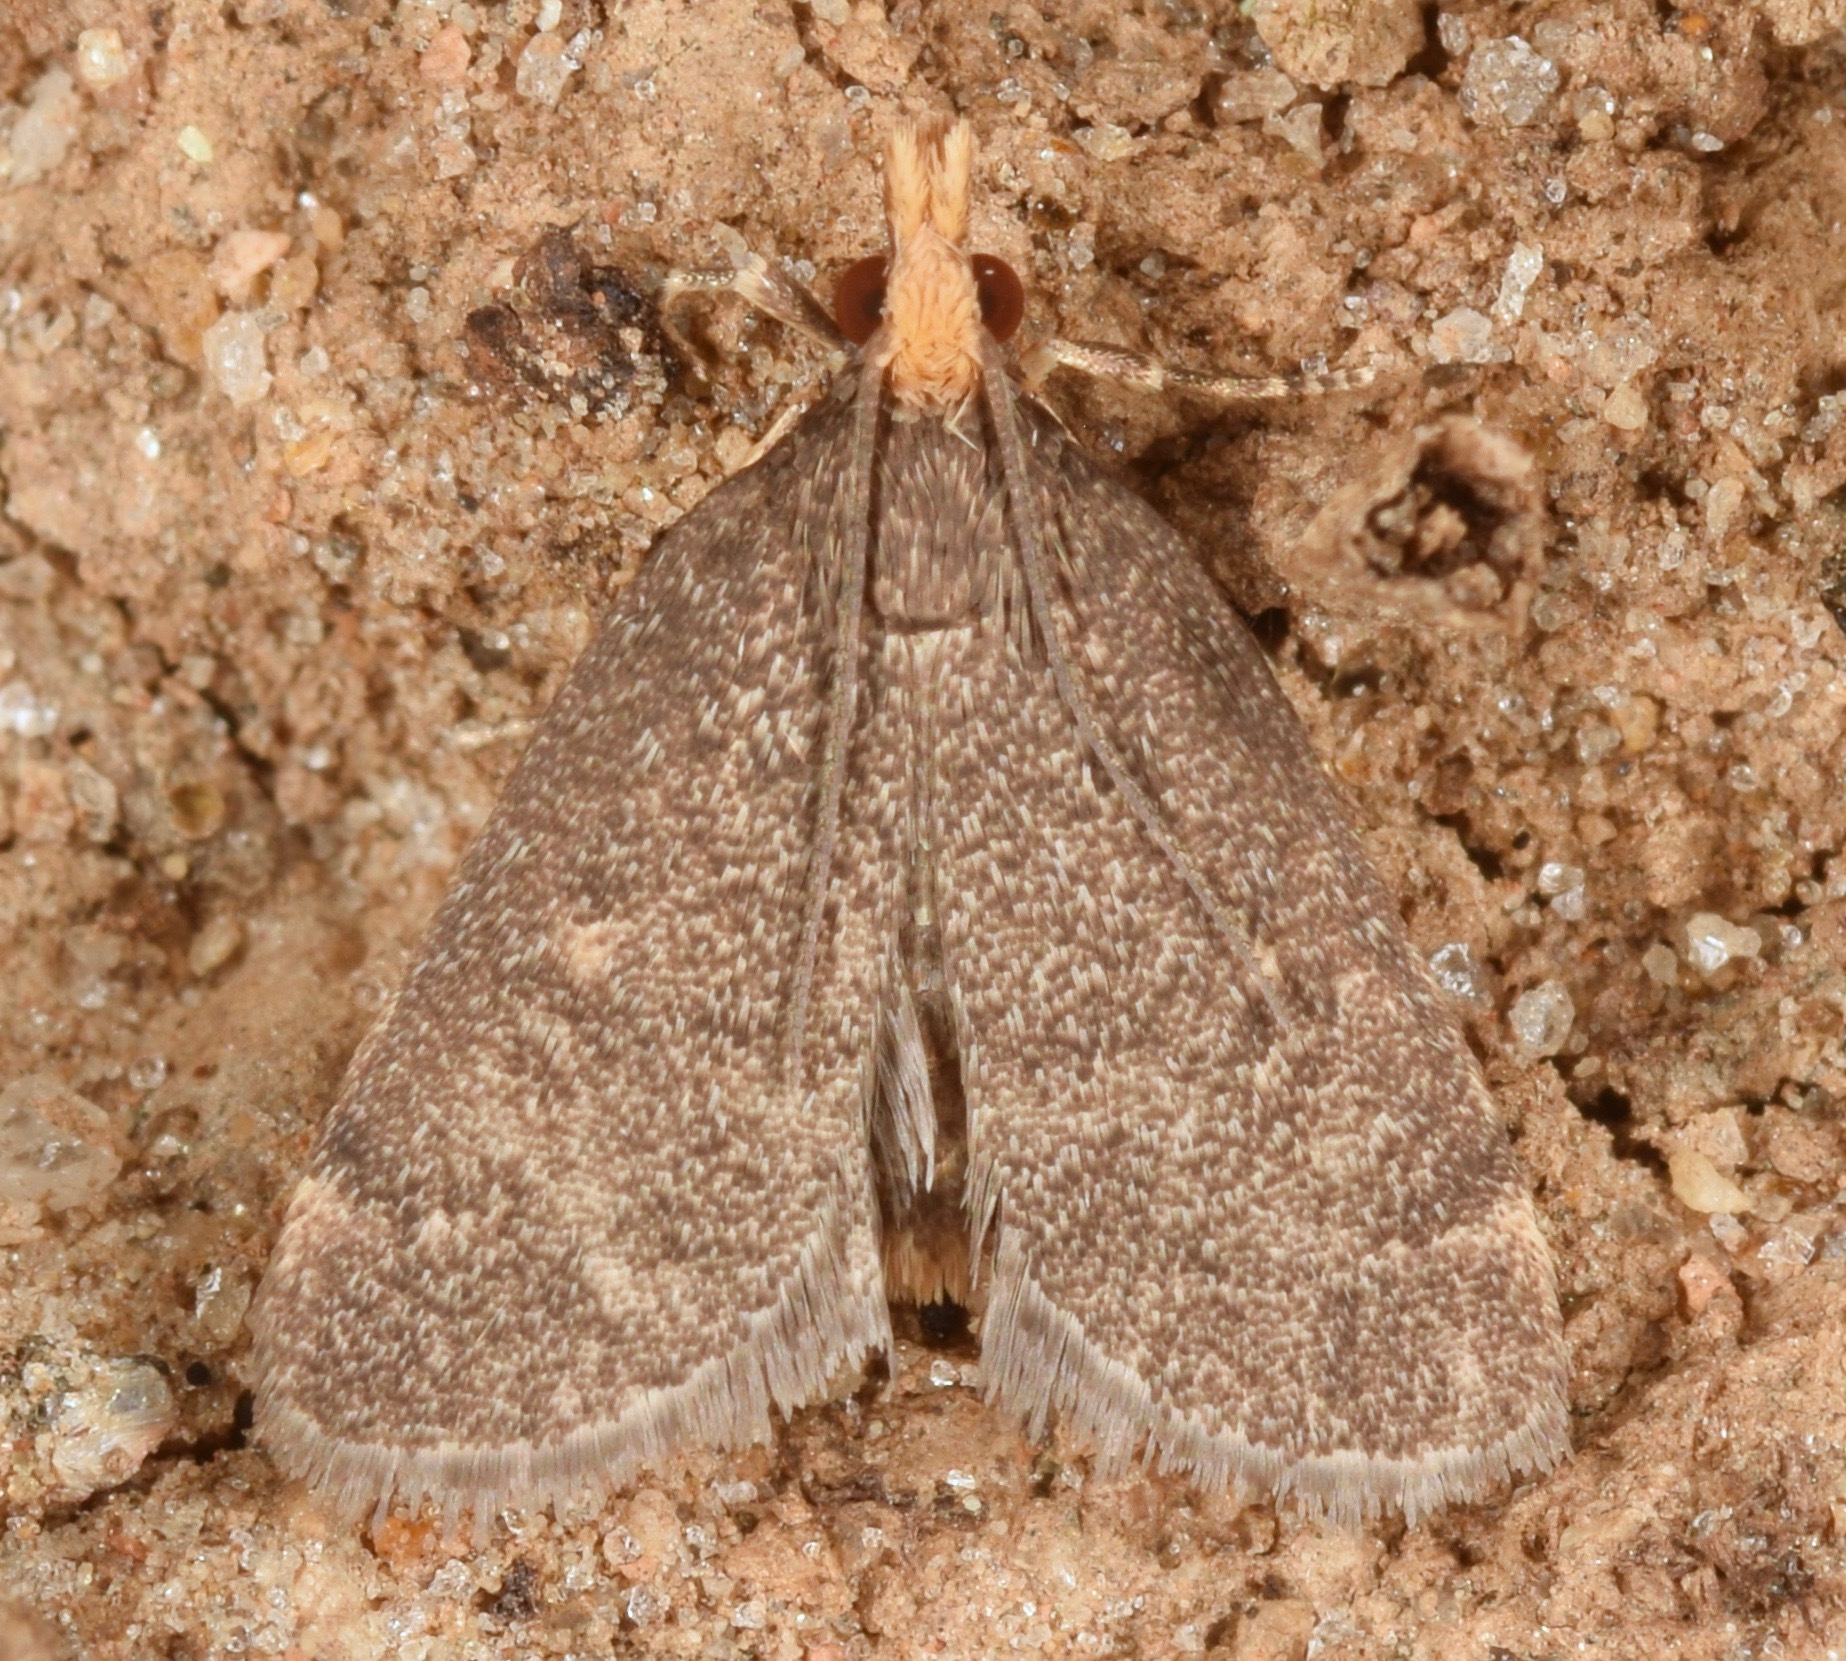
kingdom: Animalia
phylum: Arthropoda
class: Insecta
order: Lepidoptera
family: Crambidae
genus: Pyrausta
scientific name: Pyrausta merrickalis
